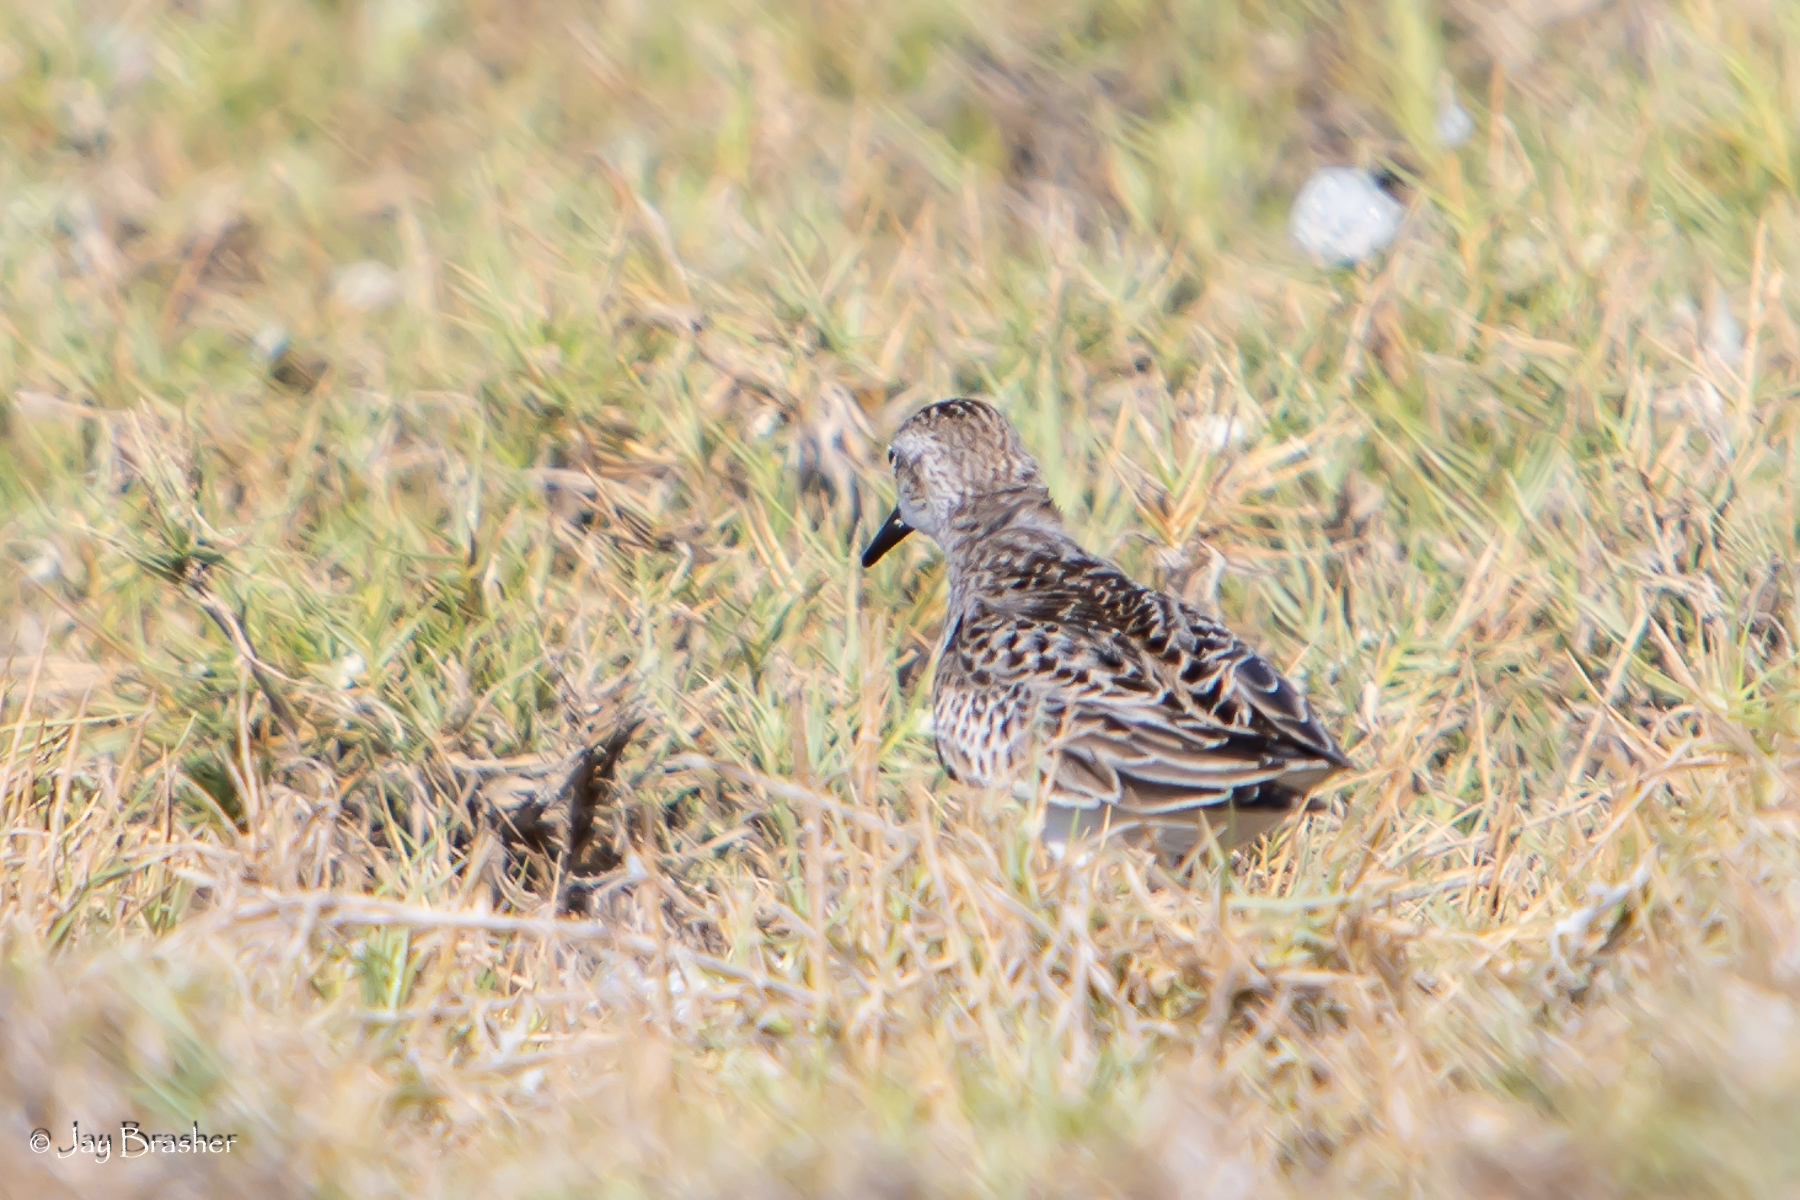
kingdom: Animalia
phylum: Chordata
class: Aves
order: Charadriiformes
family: Scolopacidae
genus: Calidris
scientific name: Calidris pusilla
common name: Semipalmated sandpiper
